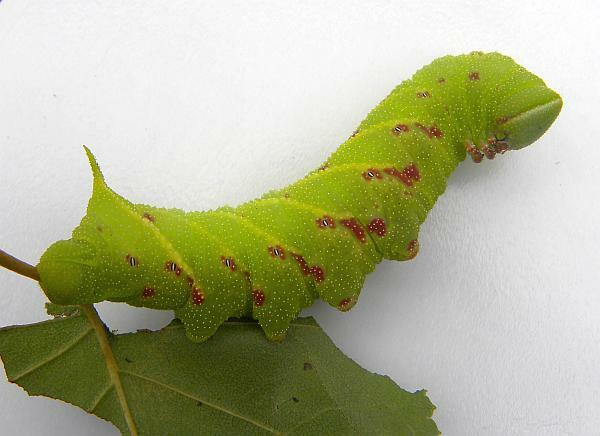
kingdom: Animalia
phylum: Arthropoda
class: Insecta
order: Lepidoptera
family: Sphingidae
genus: Paonias
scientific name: Paonias excaecata
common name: Blind-eyed sphinx
